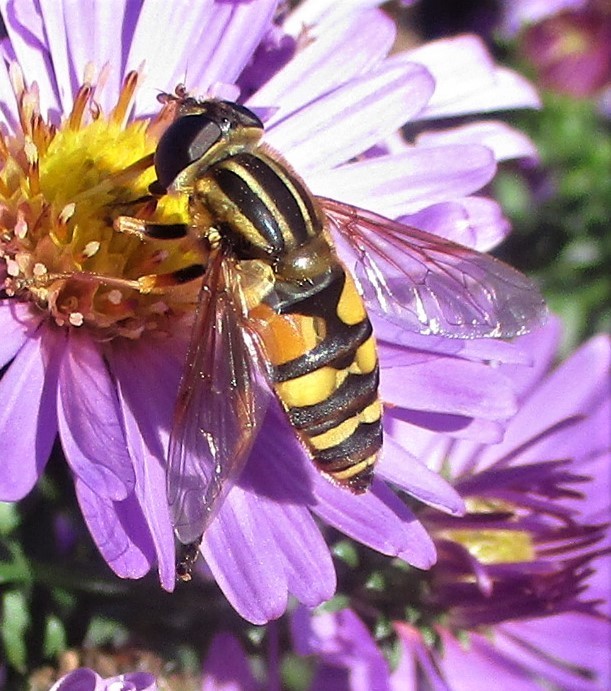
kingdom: Animalia
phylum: Arthropoda
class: Insecta
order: Diptera
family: Syrphidae
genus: Helophilus
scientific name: Helophilus fasciatus
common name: Narrow-headed marsh fly
